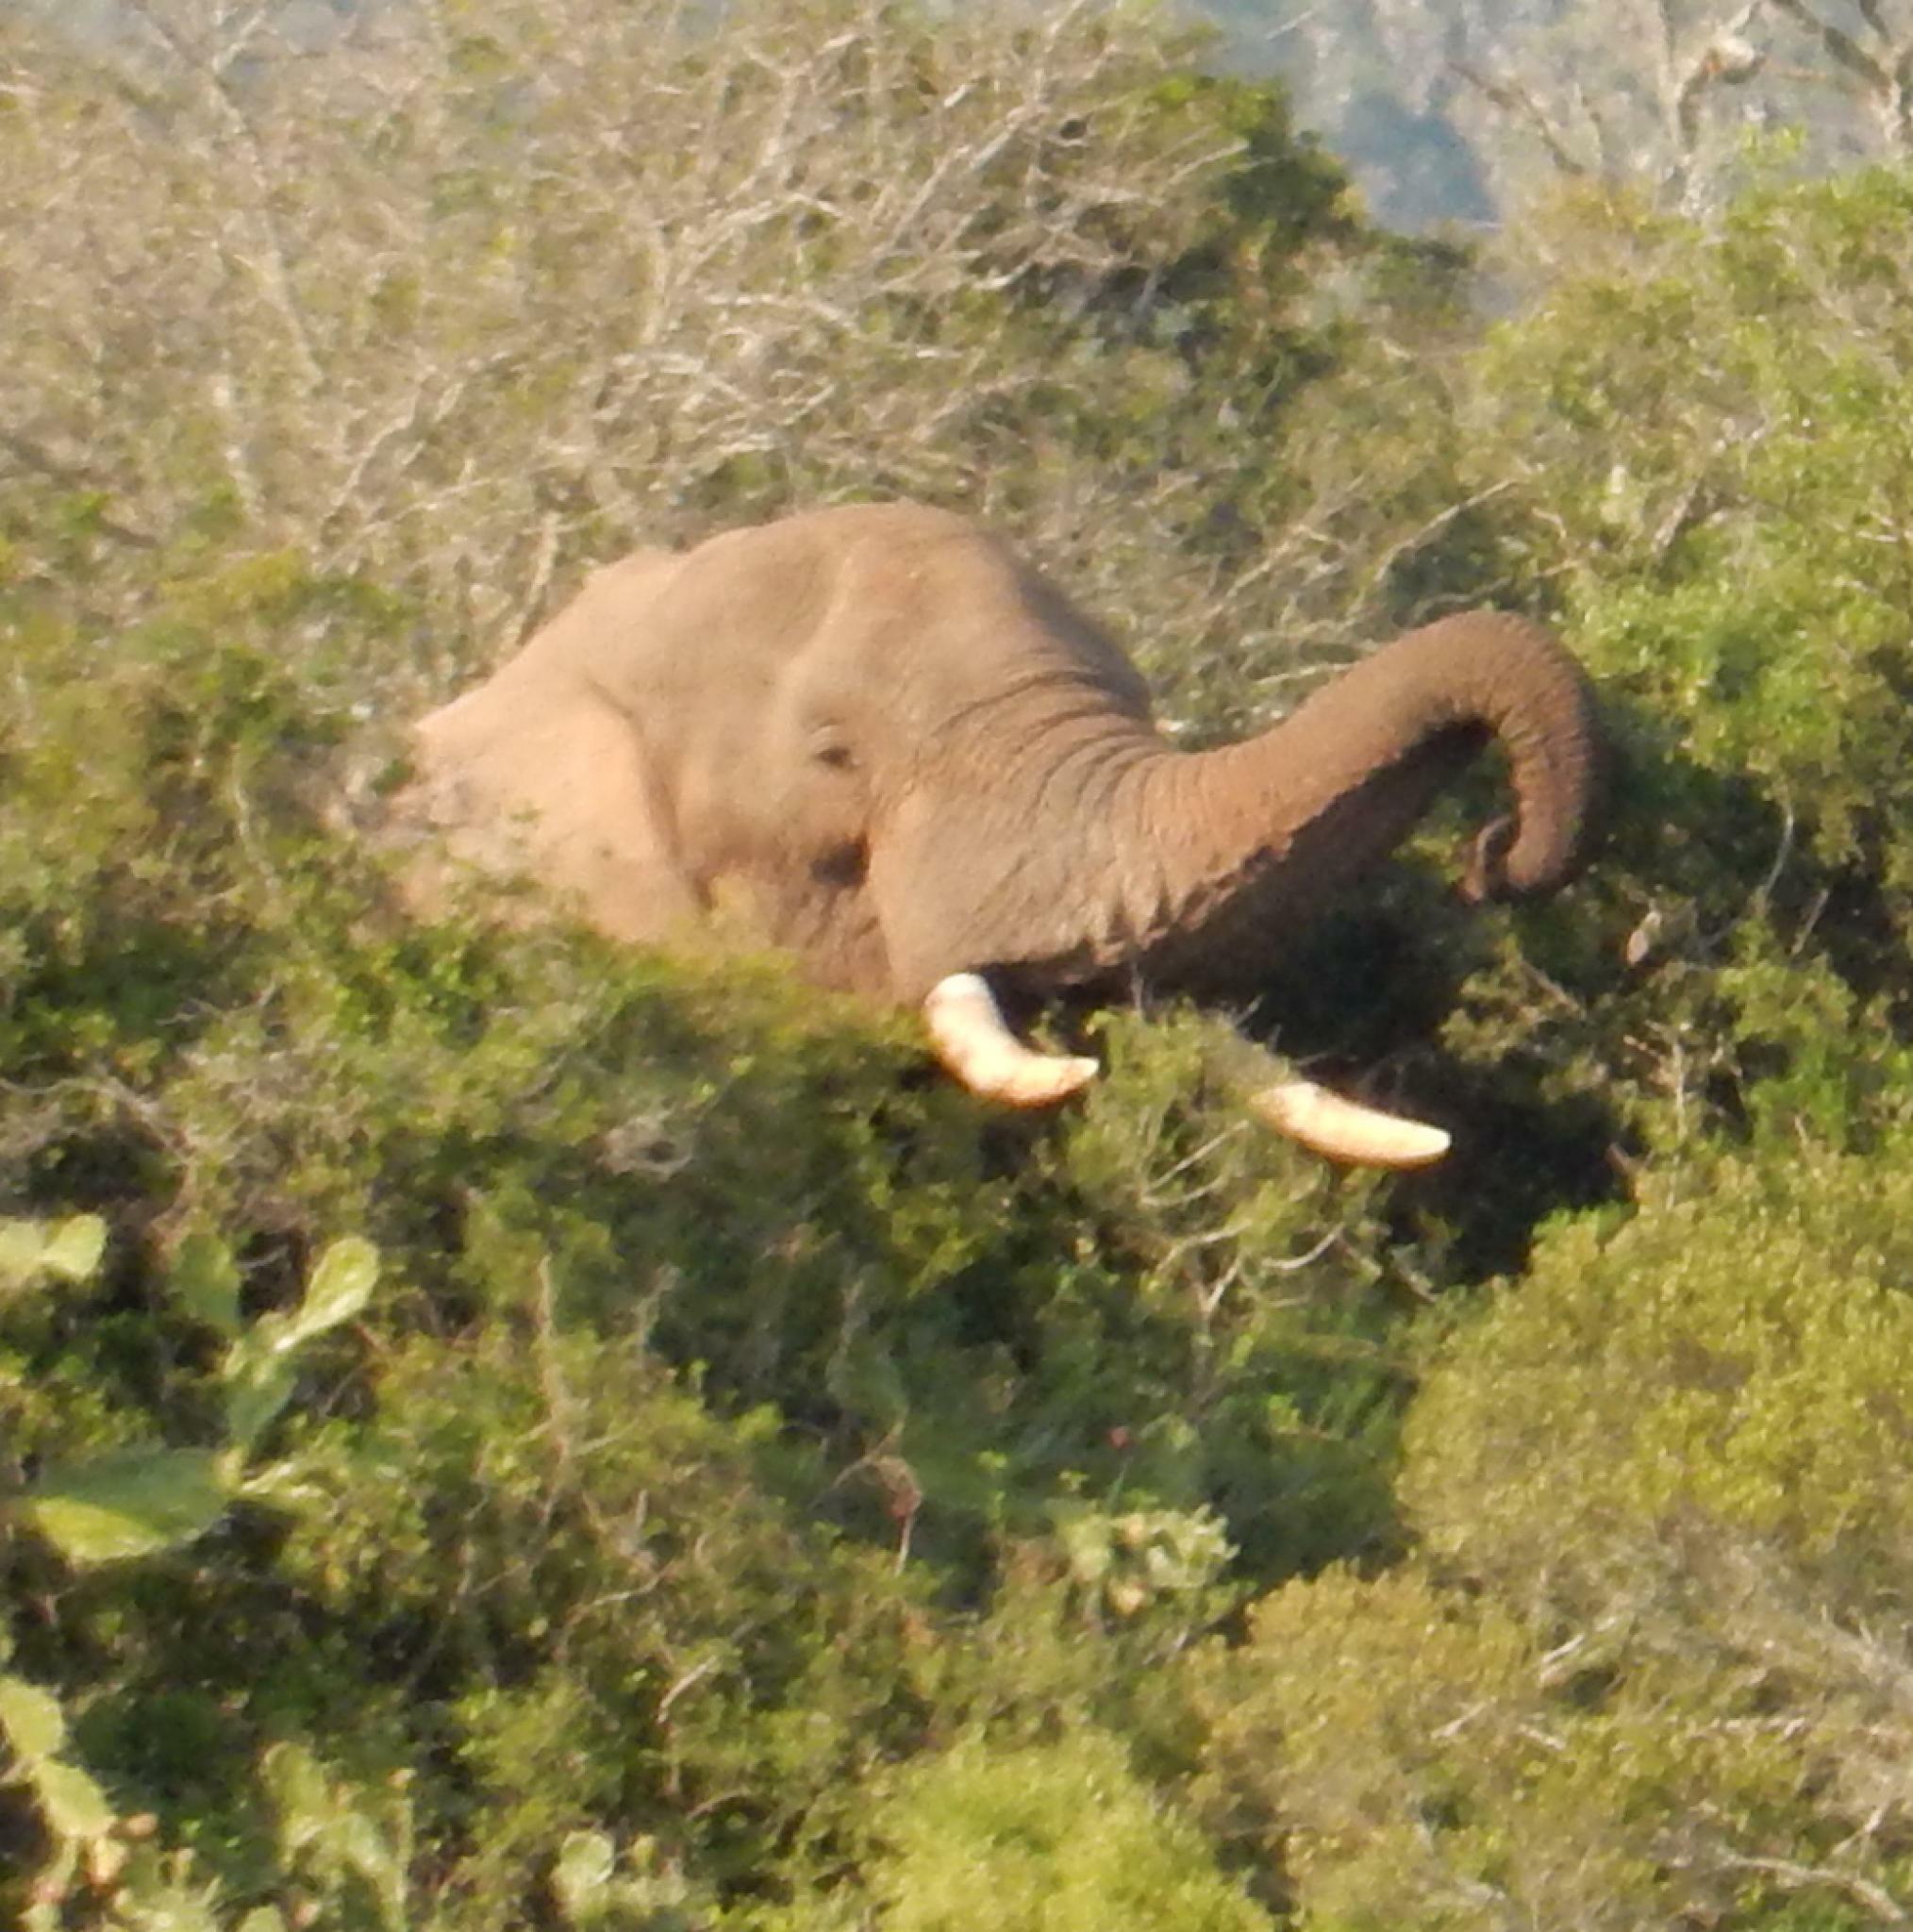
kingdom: Animalia
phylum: Chordata
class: Mammalia
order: Proboscidea
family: Elephantidae
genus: Loxodonta
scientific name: Loxodonta africana
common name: African elephant
